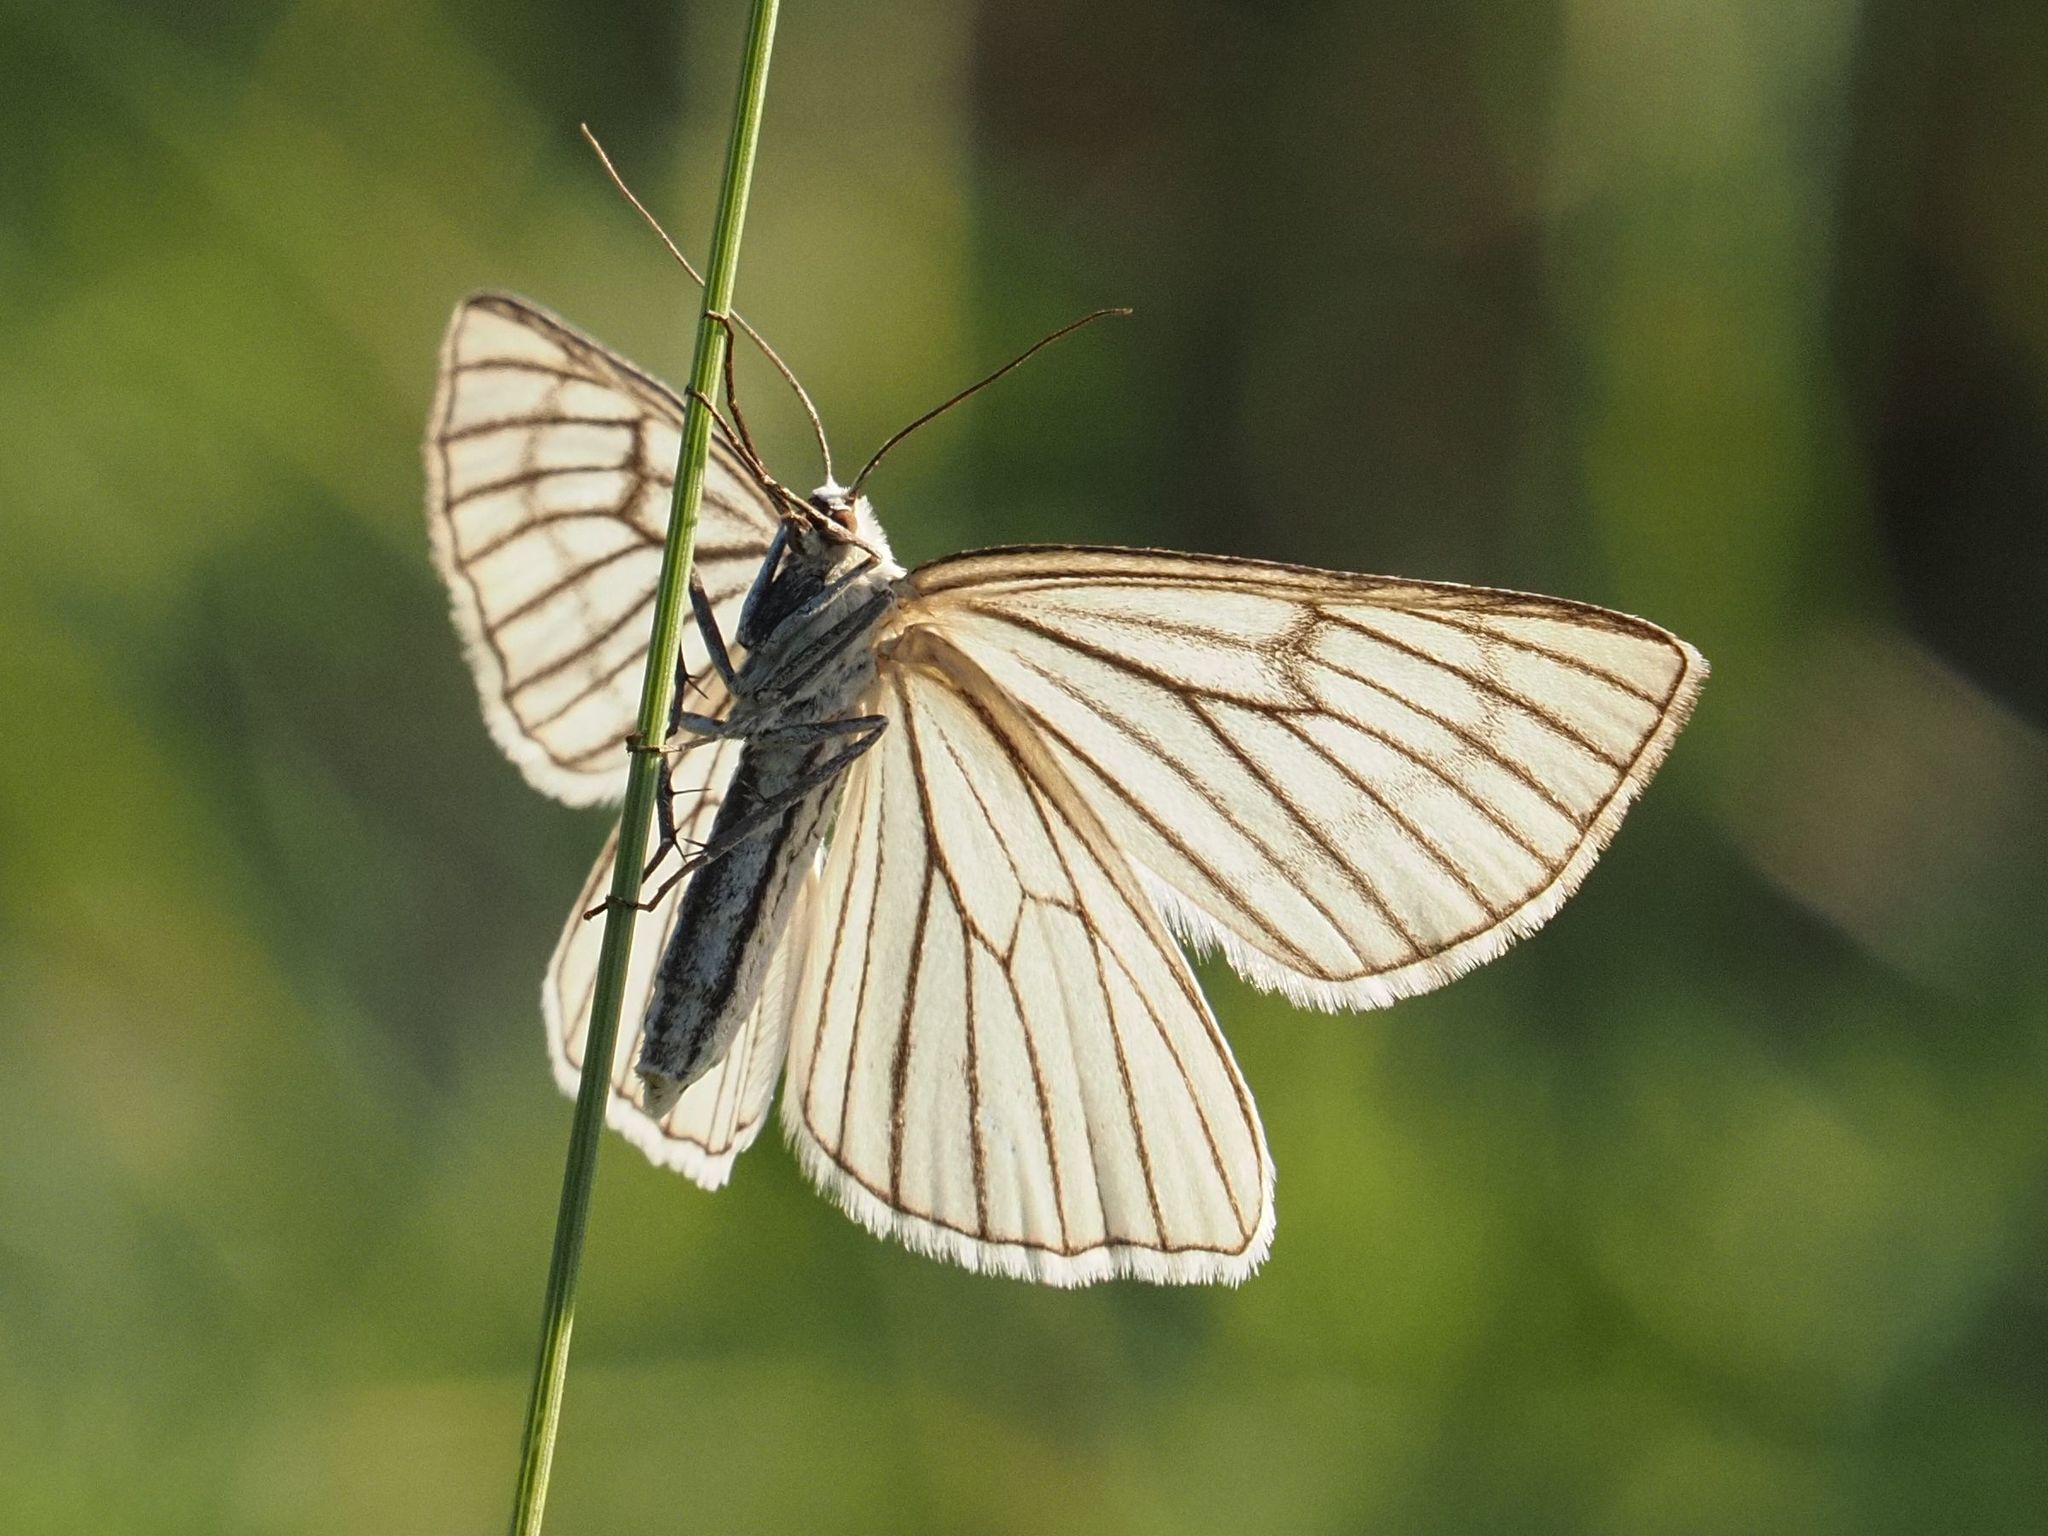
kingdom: Animalia
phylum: Arthropoda
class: Insecta
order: Lepidoptera
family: Geometridae
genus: Siona
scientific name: Siona lineata
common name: Black-veined moth
